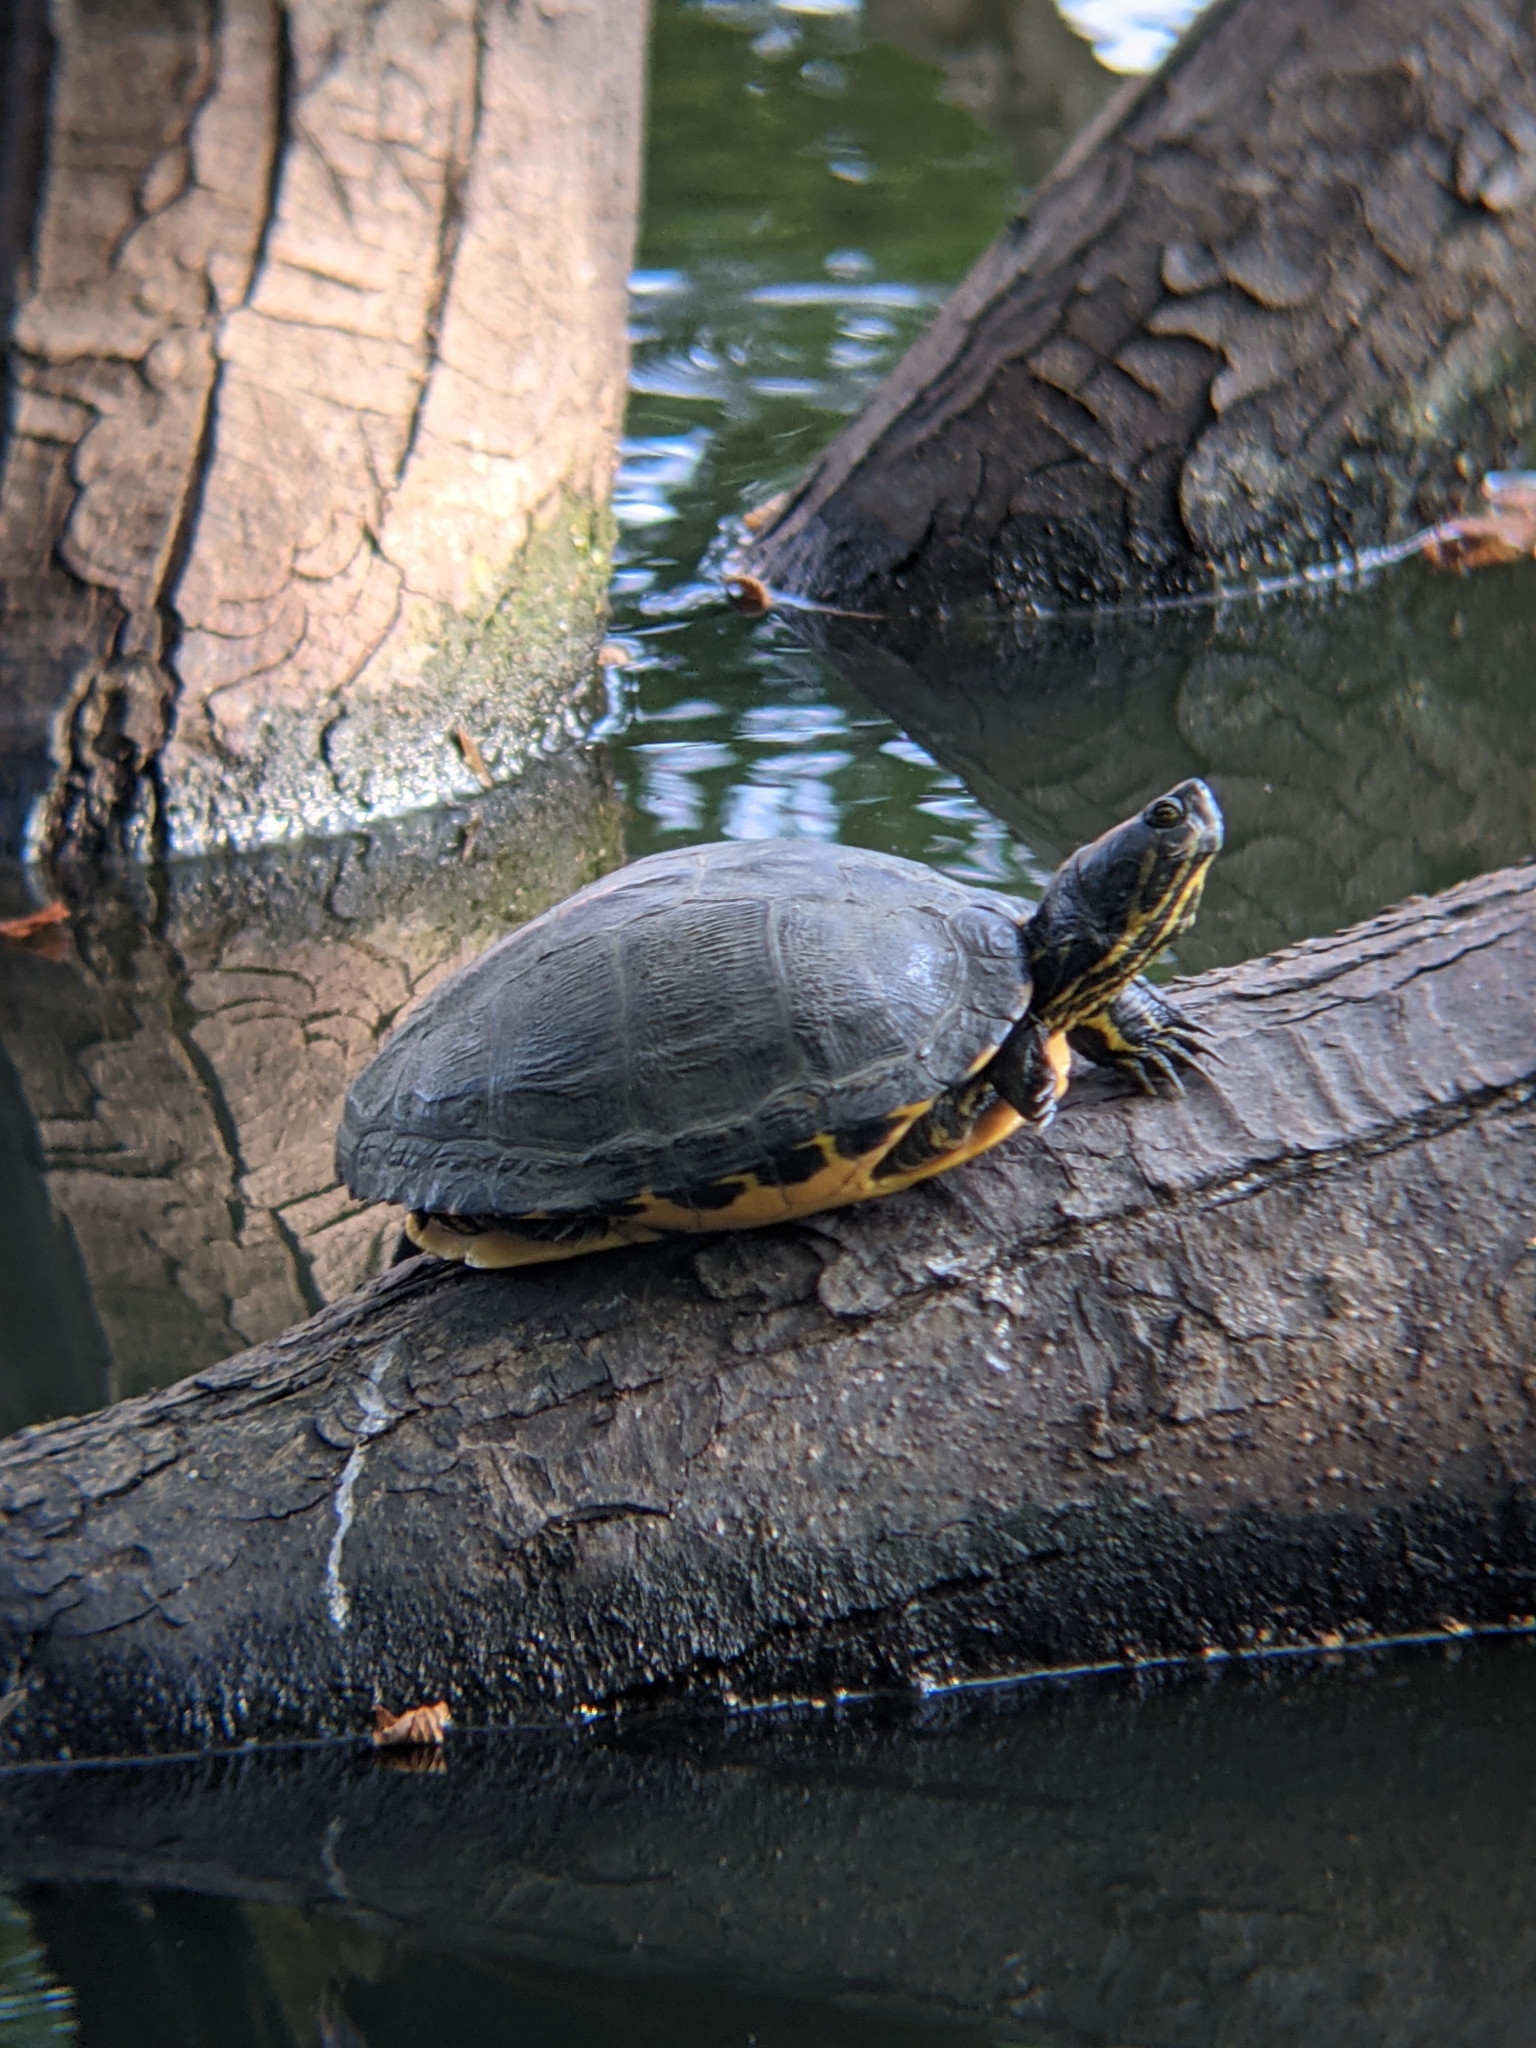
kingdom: Animalia
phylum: Chordata
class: Testudines
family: Emydidae
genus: Trachemys
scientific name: Trachemys scripta
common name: Slider
